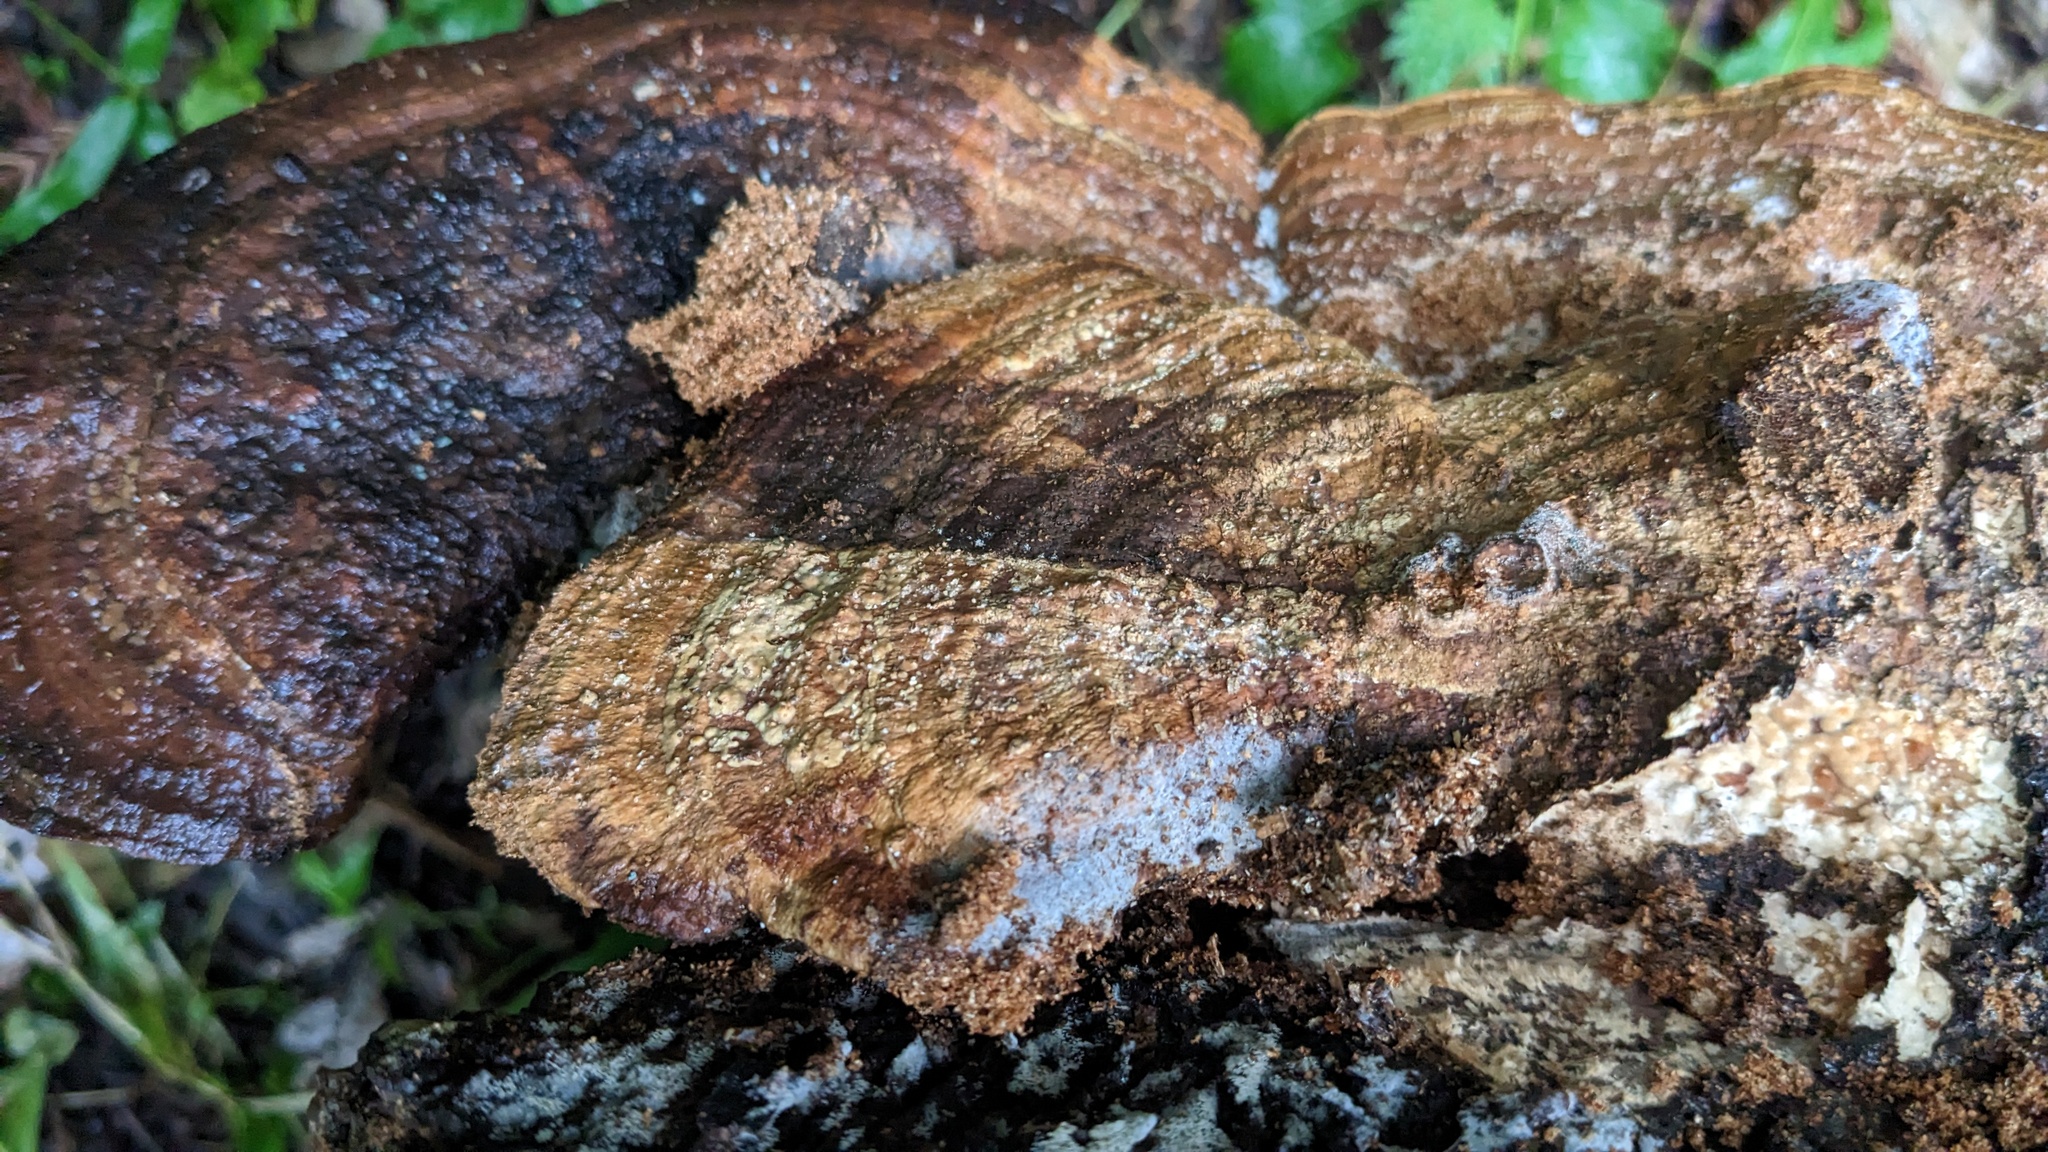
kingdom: Fungi
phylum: Basidiomycota
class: Agaricomycetes
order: Polyporales
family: Fomitopsidaceae
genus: Fomitopsis
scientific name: Fomitopsis
